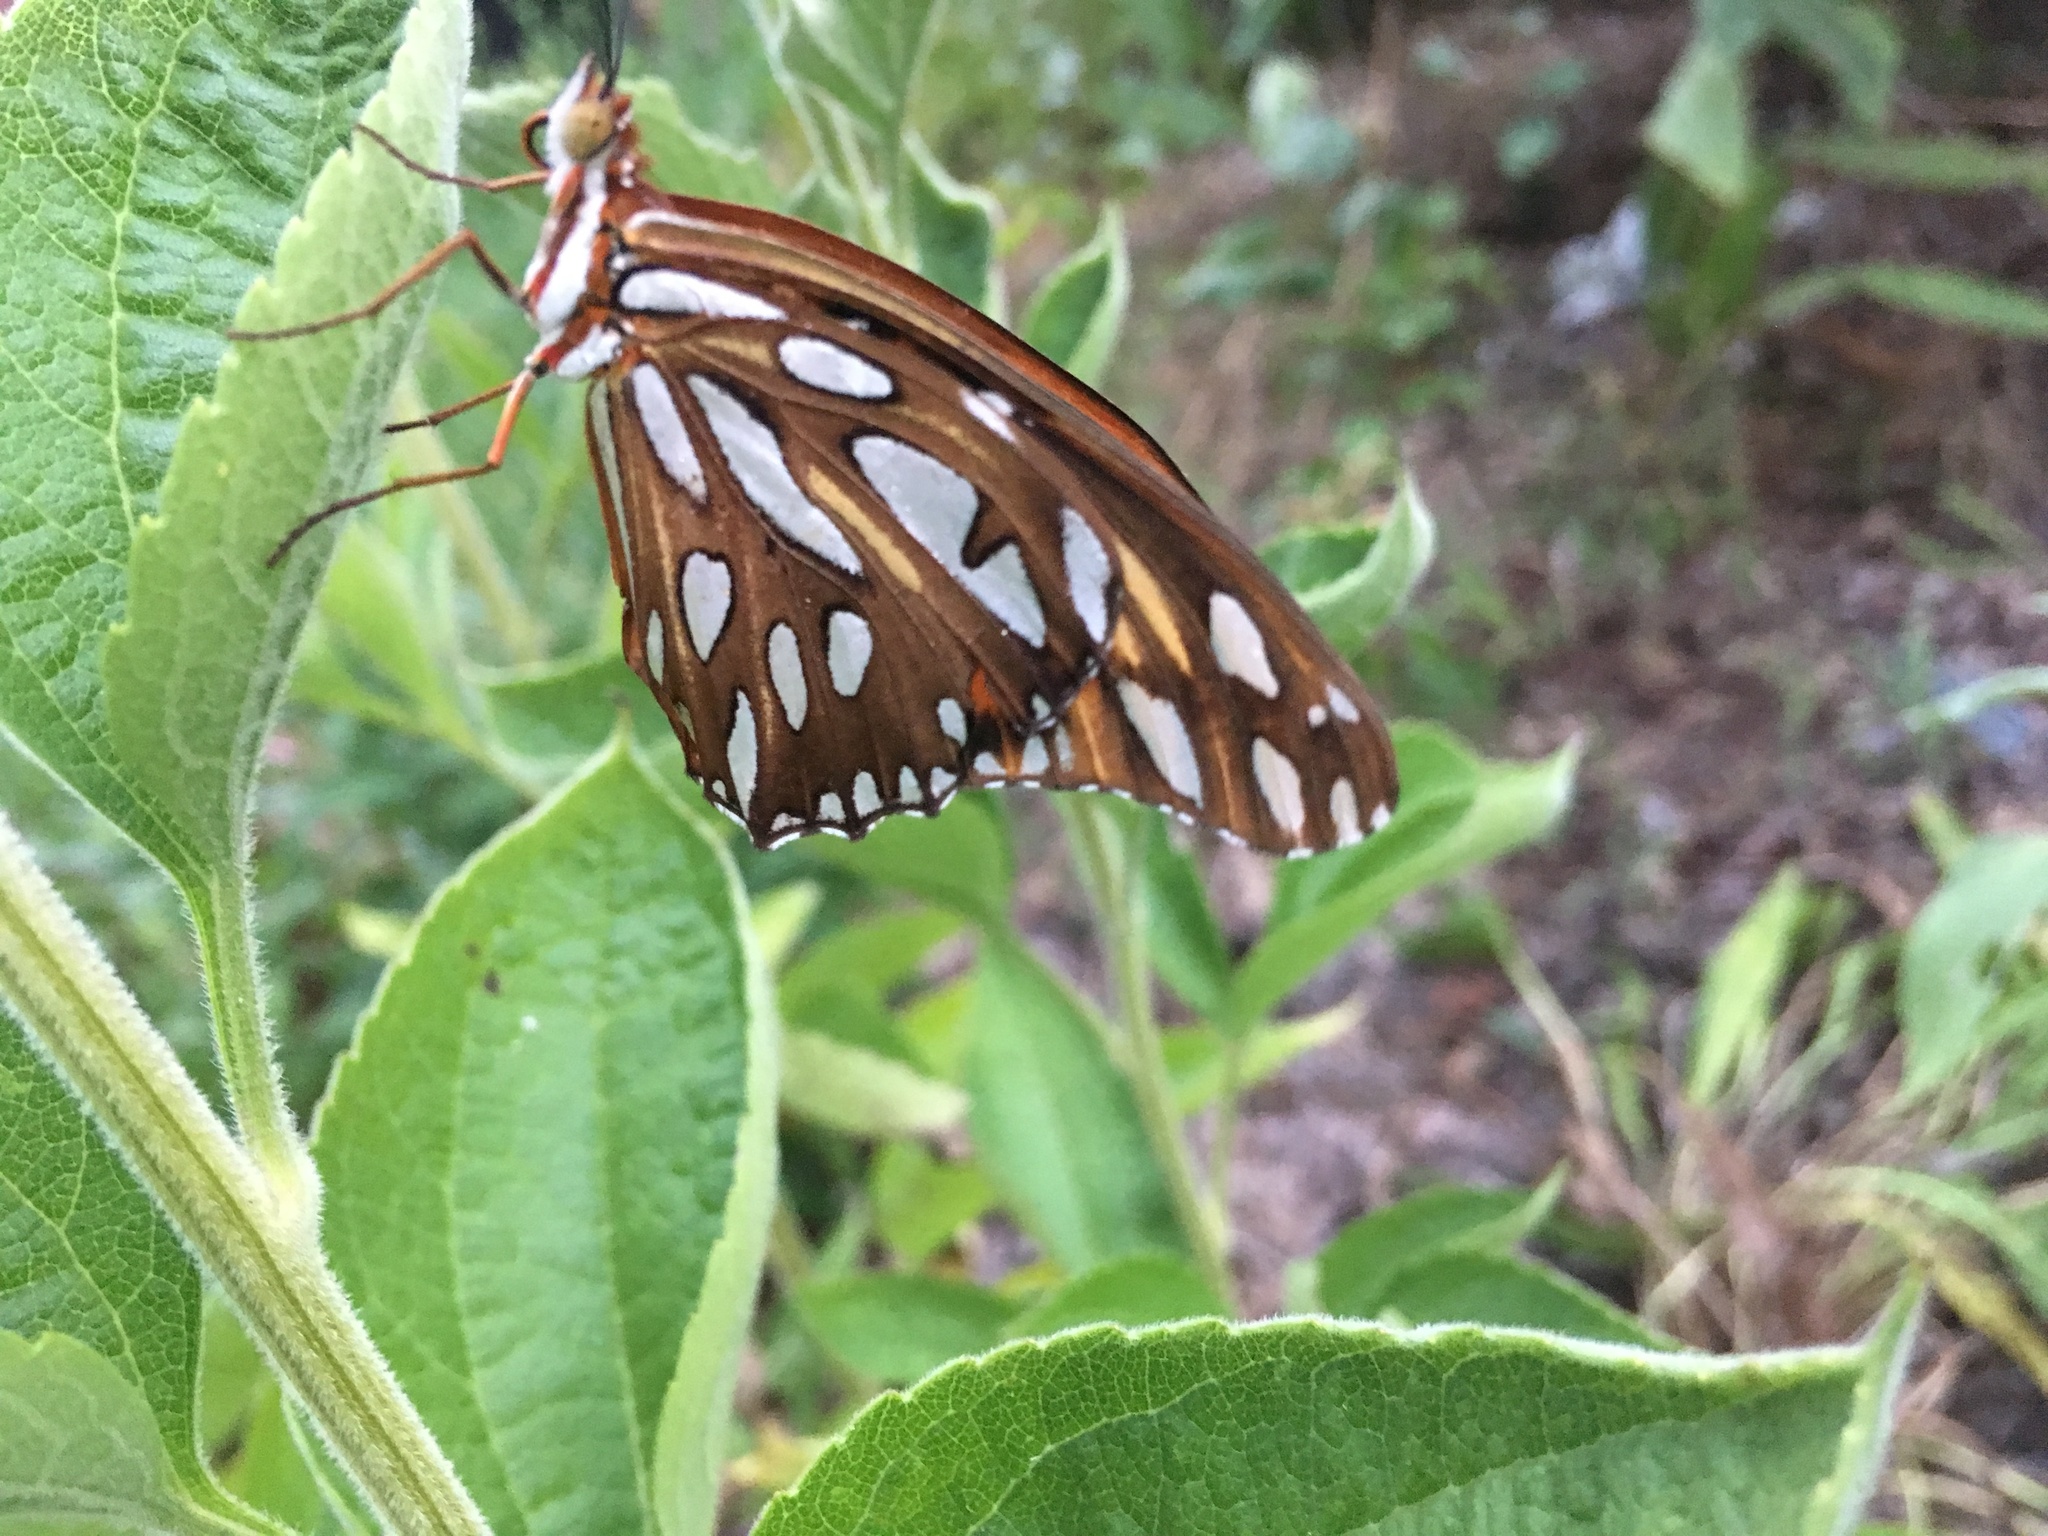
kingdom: Animalia
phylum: Arthropoda
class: Insecta
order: Lepidoptera
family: Nymphalidae
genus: Dione
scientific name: Dione vanillae
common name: Gulf fritillary
